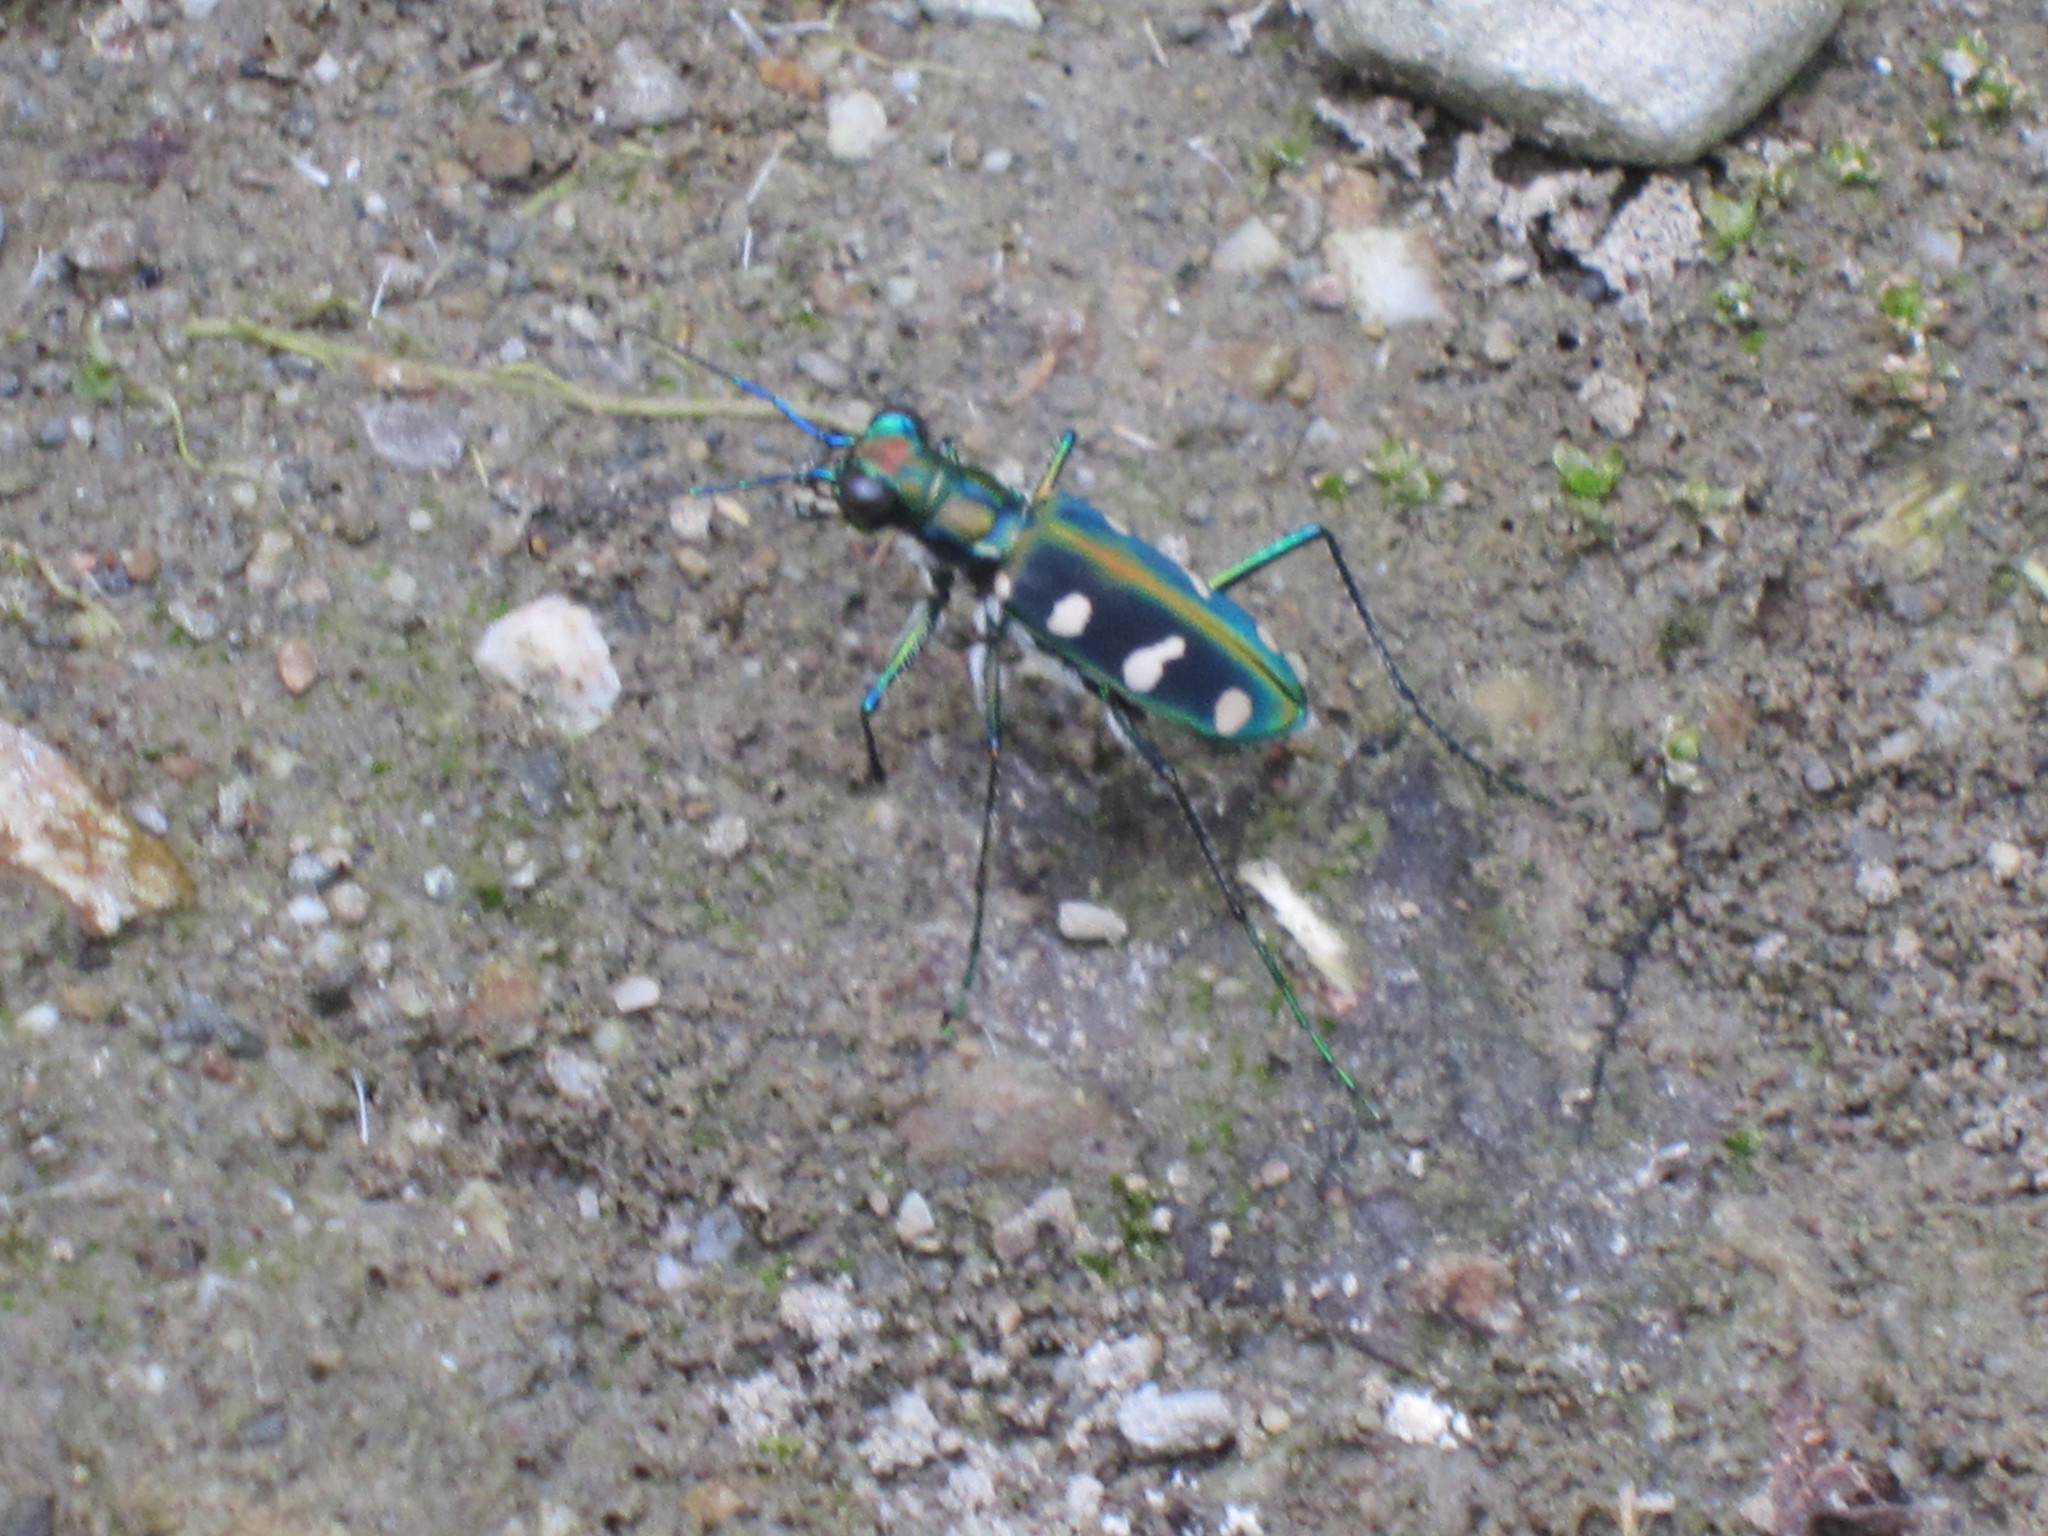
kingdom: Animalia
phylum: Arthropoda
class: Insecta
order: Coleoptera
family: Carabidae
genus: Cicindela
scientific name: Cicindela batesi
